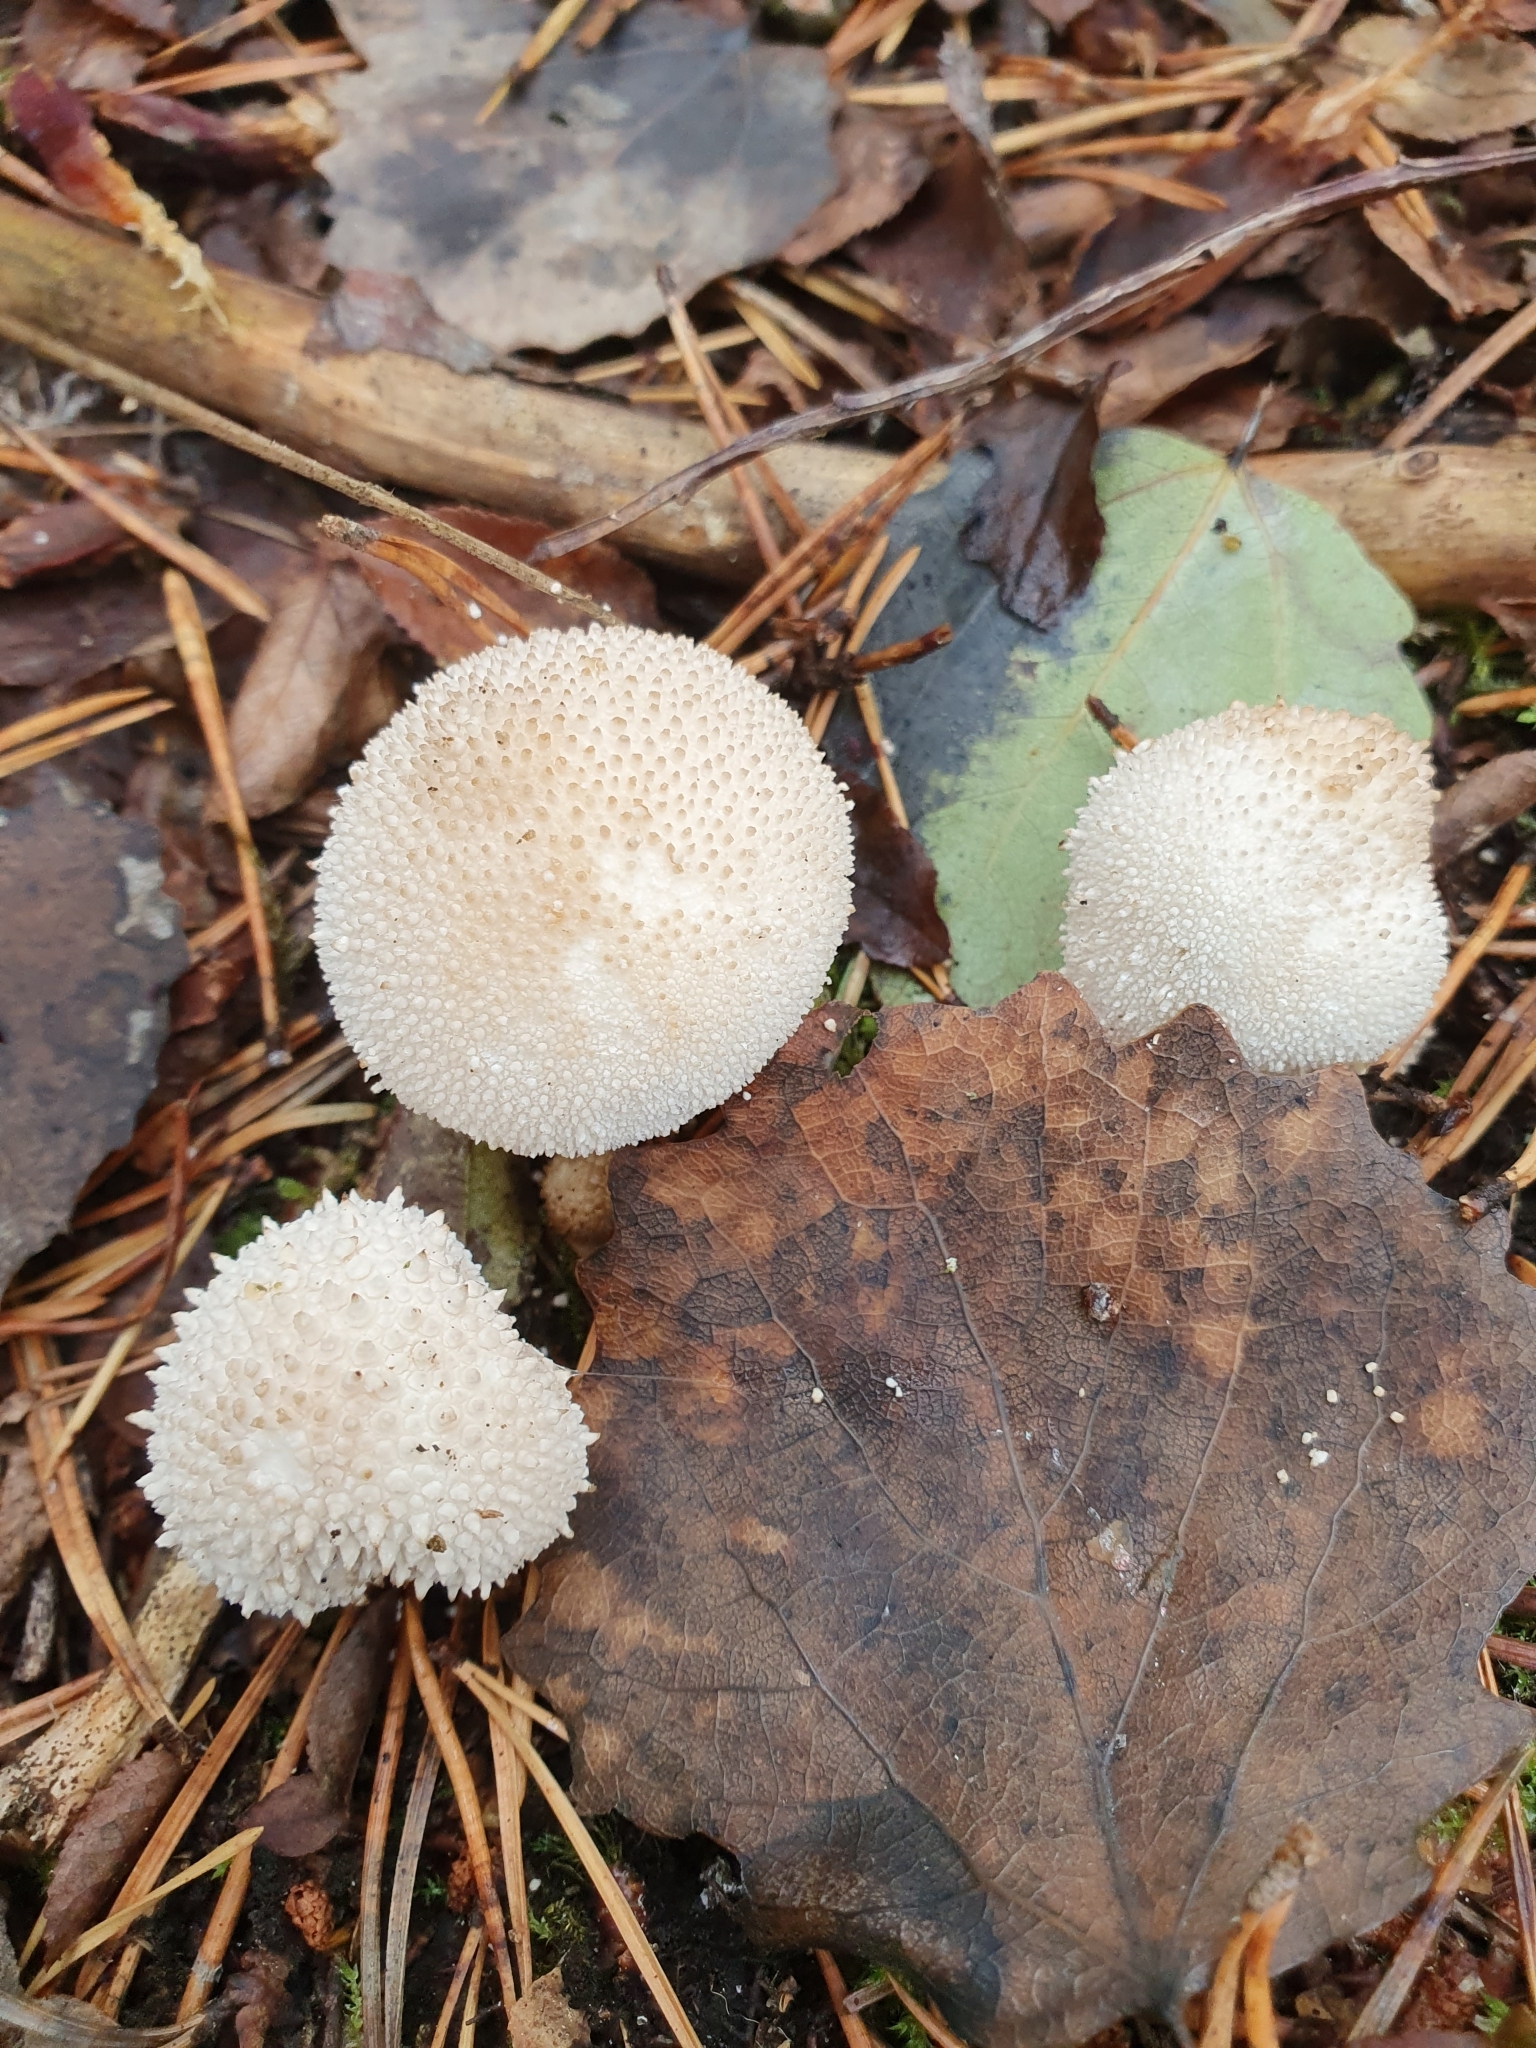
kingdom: Fungi
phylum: Basidiomycota
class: Agaricomycetes
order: Agaricales
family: Lycoperdaceae
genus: Lycoperdon
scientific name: Lycoperdon perlatum
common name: Common puffball
